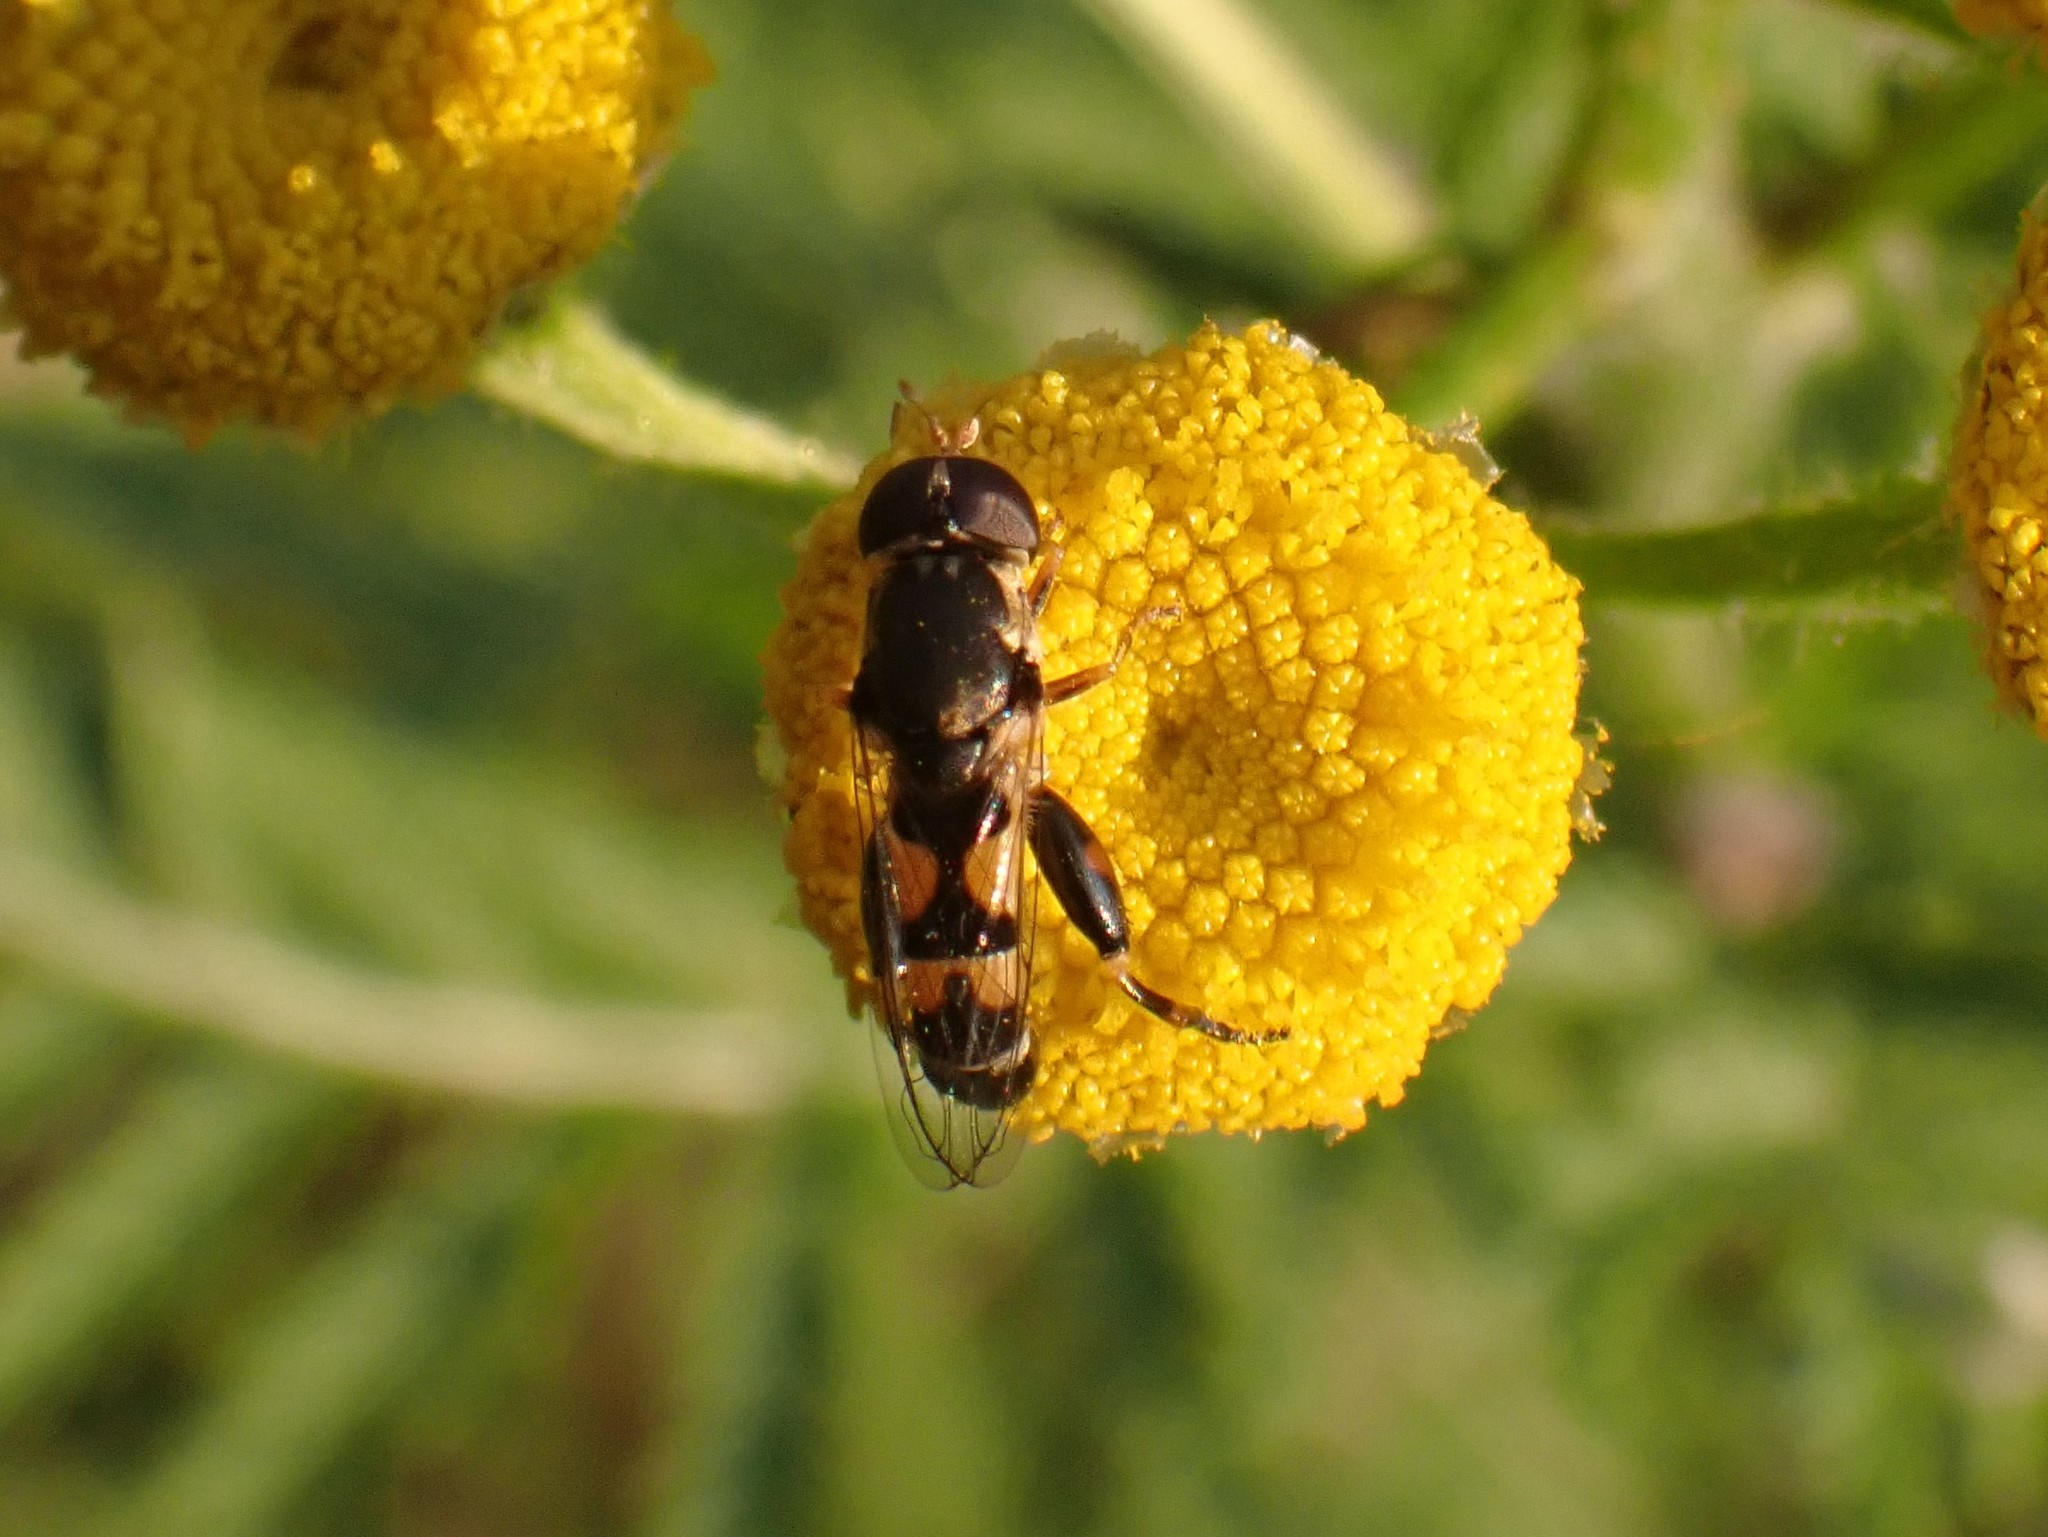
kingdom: Animalia
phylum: Arthropoda
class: Insecta
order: Diptera
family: Syrphidae
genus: Syritta
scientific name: Syritta pipiens
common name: Hover fly
